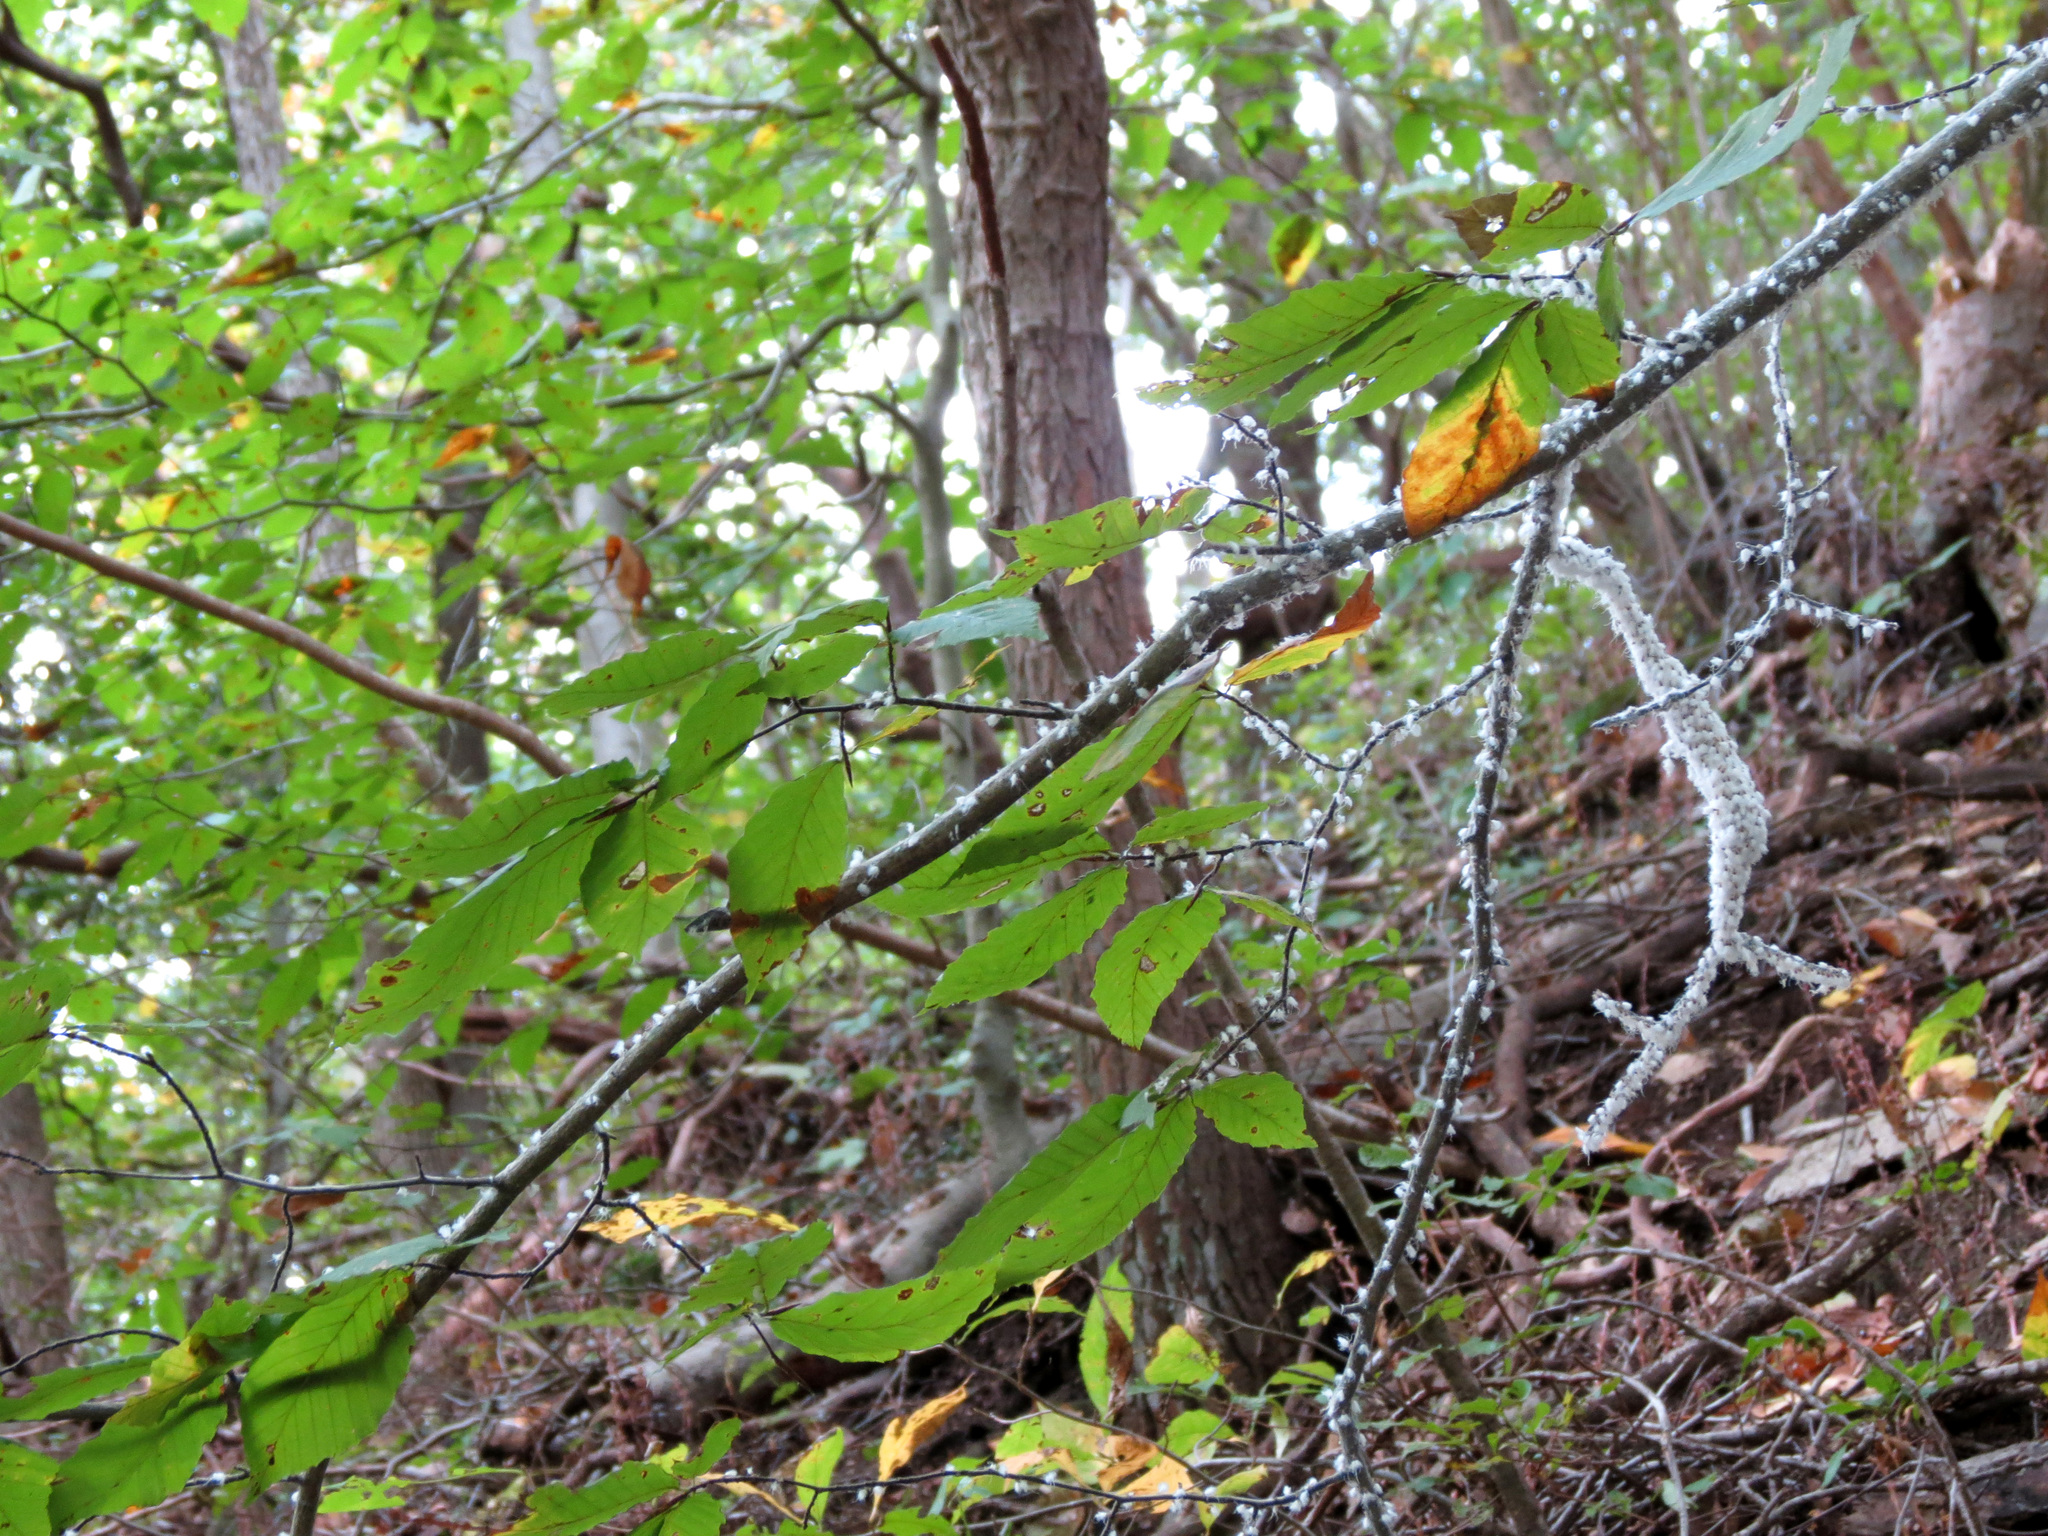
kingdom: Animalia
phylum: Arthropoda
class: Insecta
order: Hemiptera
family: Aphididae
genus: Grylloprociphilus
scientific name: Grylloprociphilus imbricator
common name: Beech blight aphid
